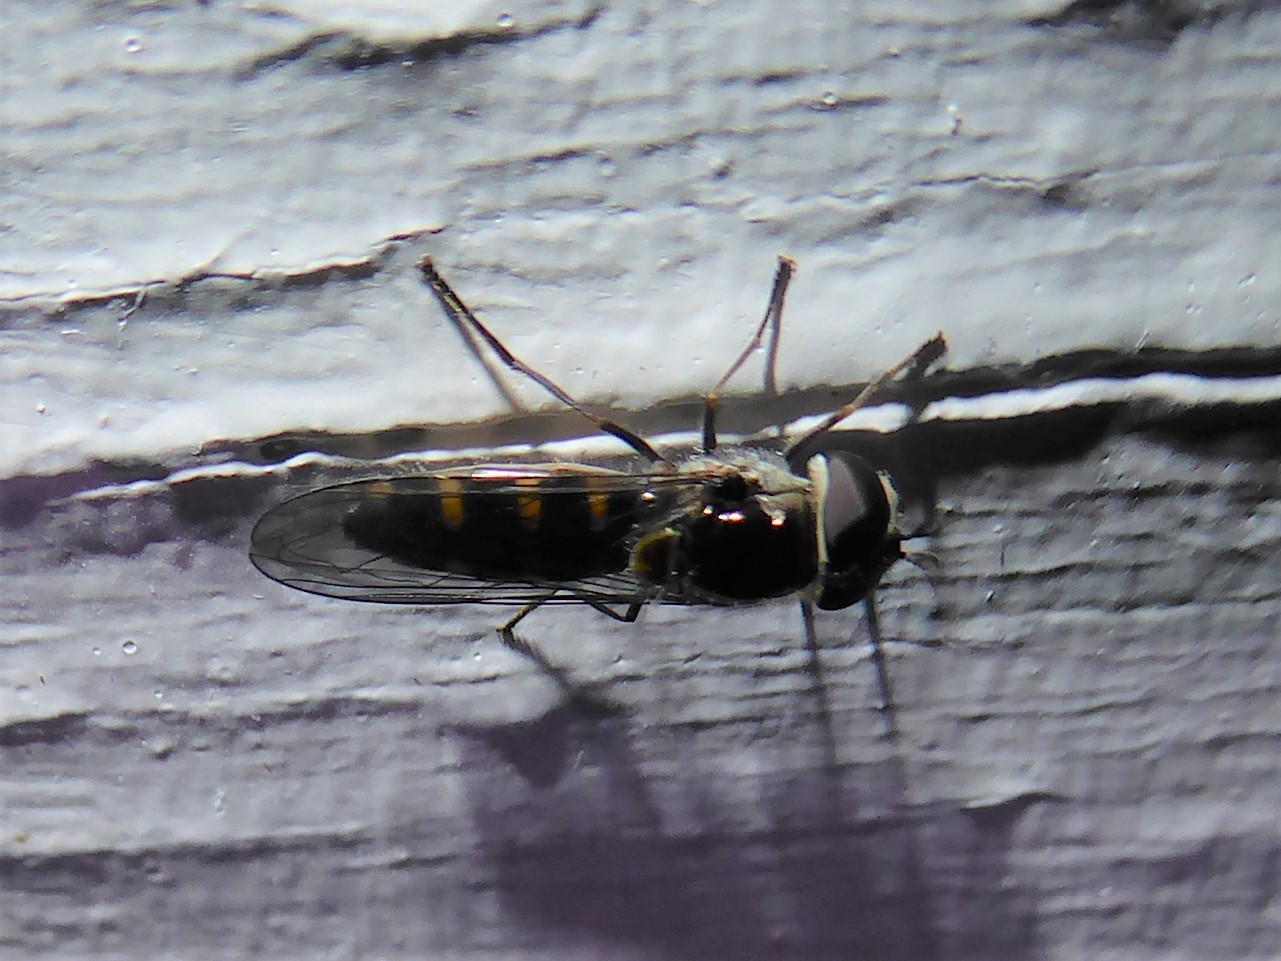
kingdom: Animalia
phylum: Arthropoda
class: Insecta
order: Diptera
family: Syrphidae
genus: Melangyna
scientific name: Melangyna novaezelandiae
